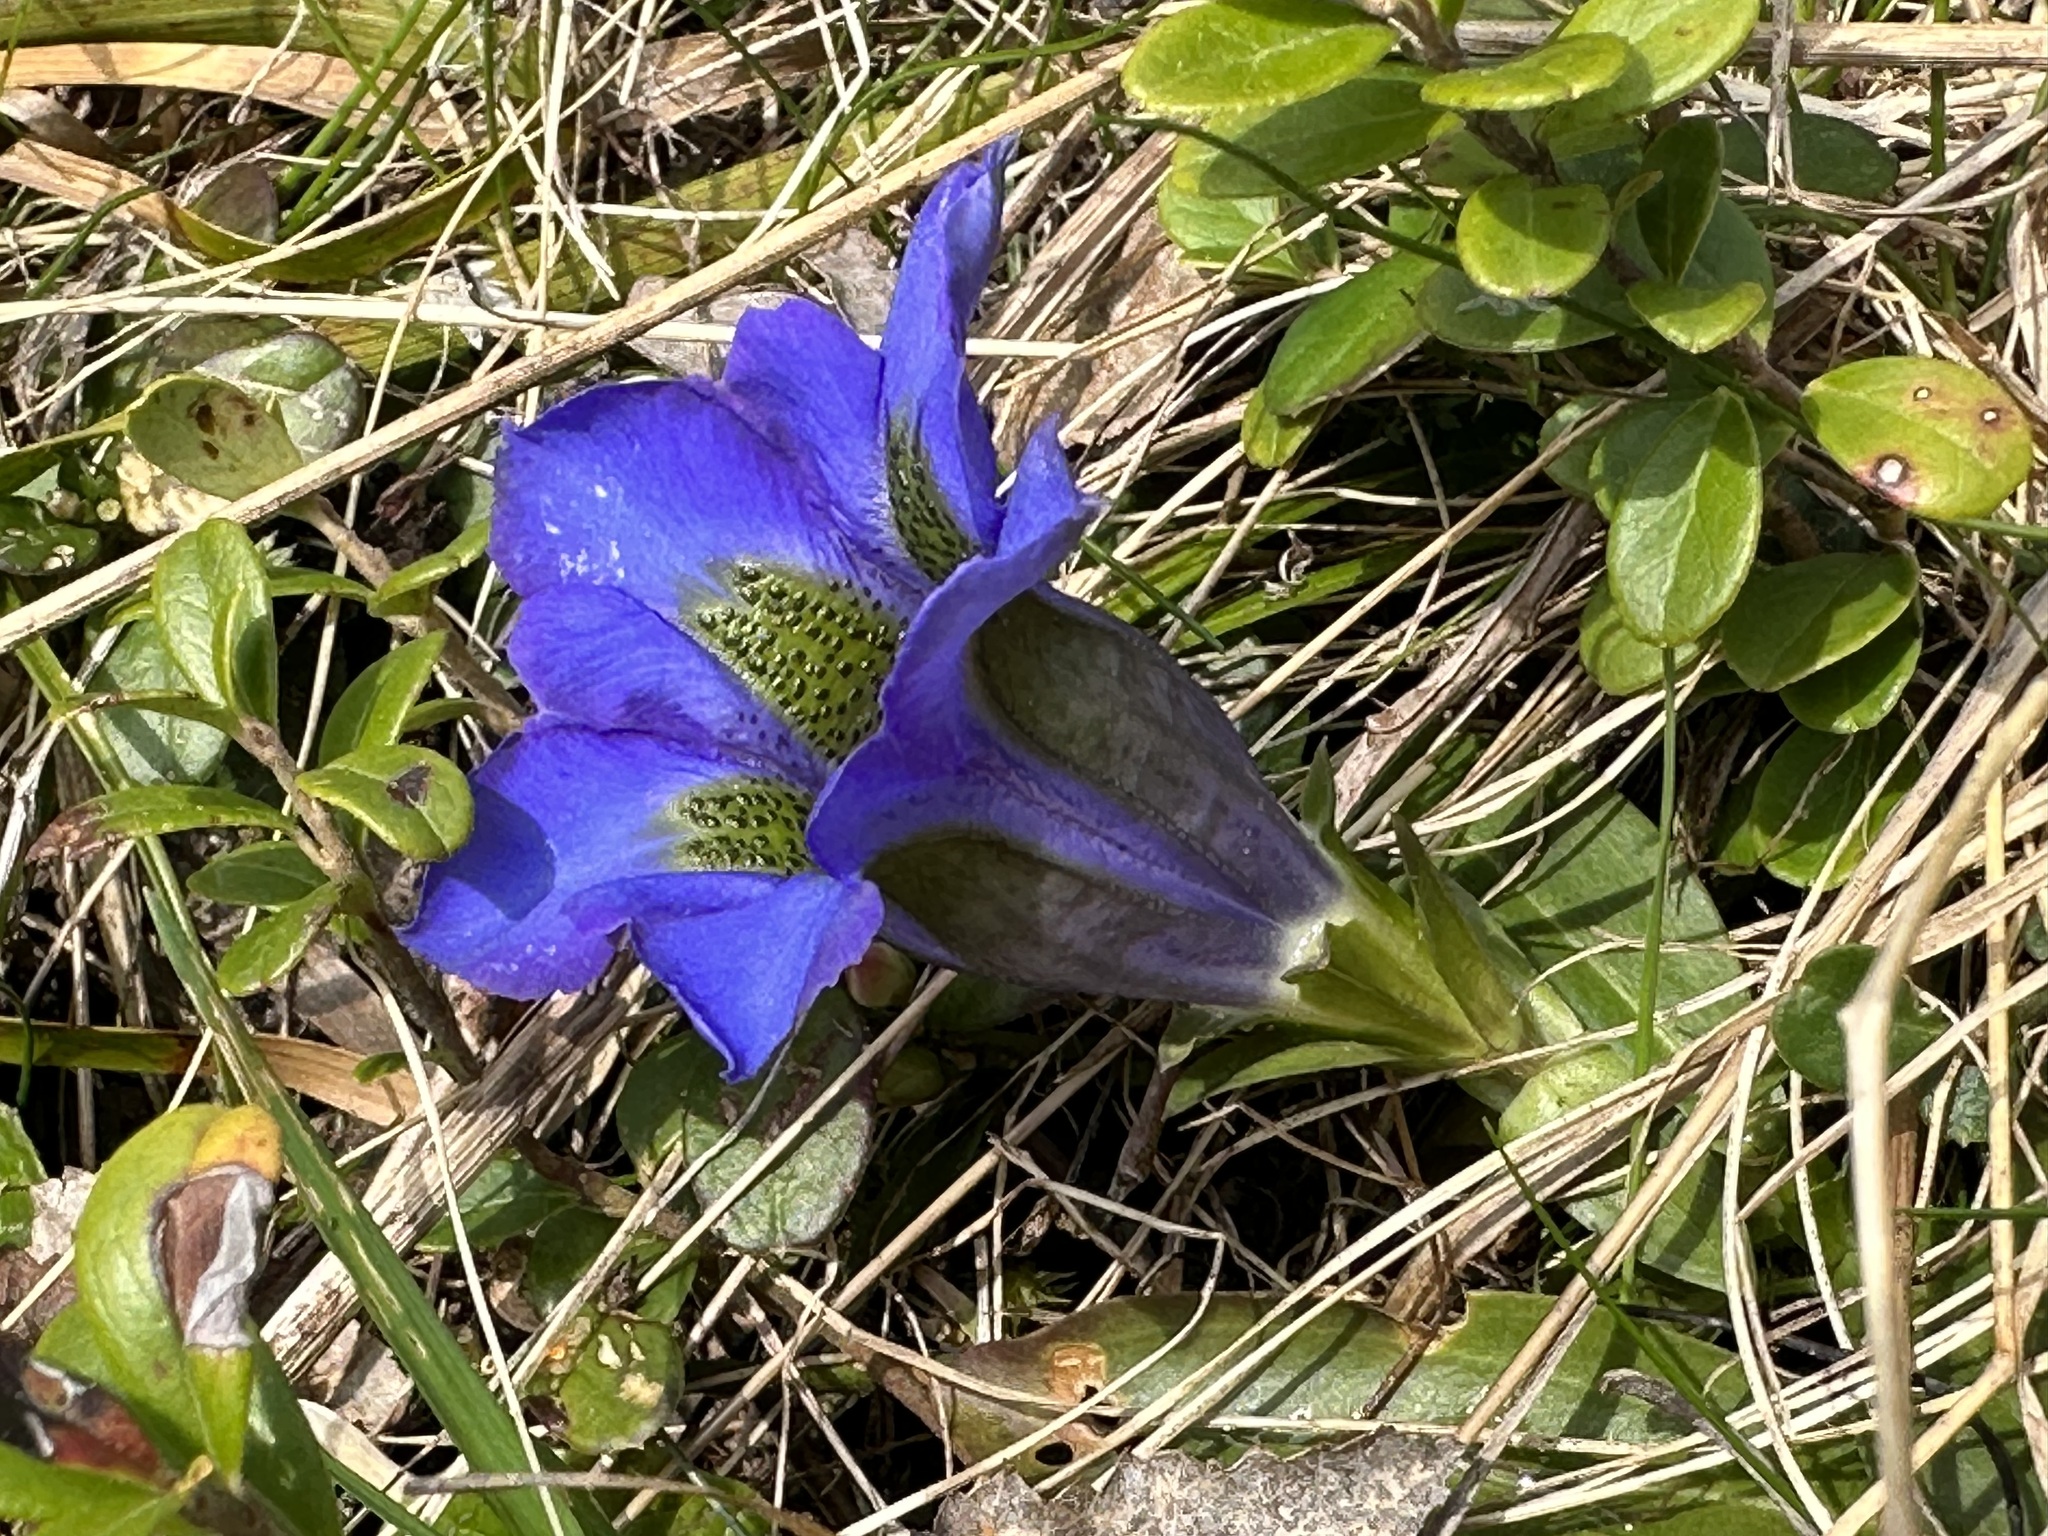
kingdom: Plantae
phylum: Tracheophyta
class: Magnoliopsida
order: Gentianales
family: Gentianaceae
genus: Gentiana
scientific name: Gentiana acaulis
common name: Trumpet gentian
